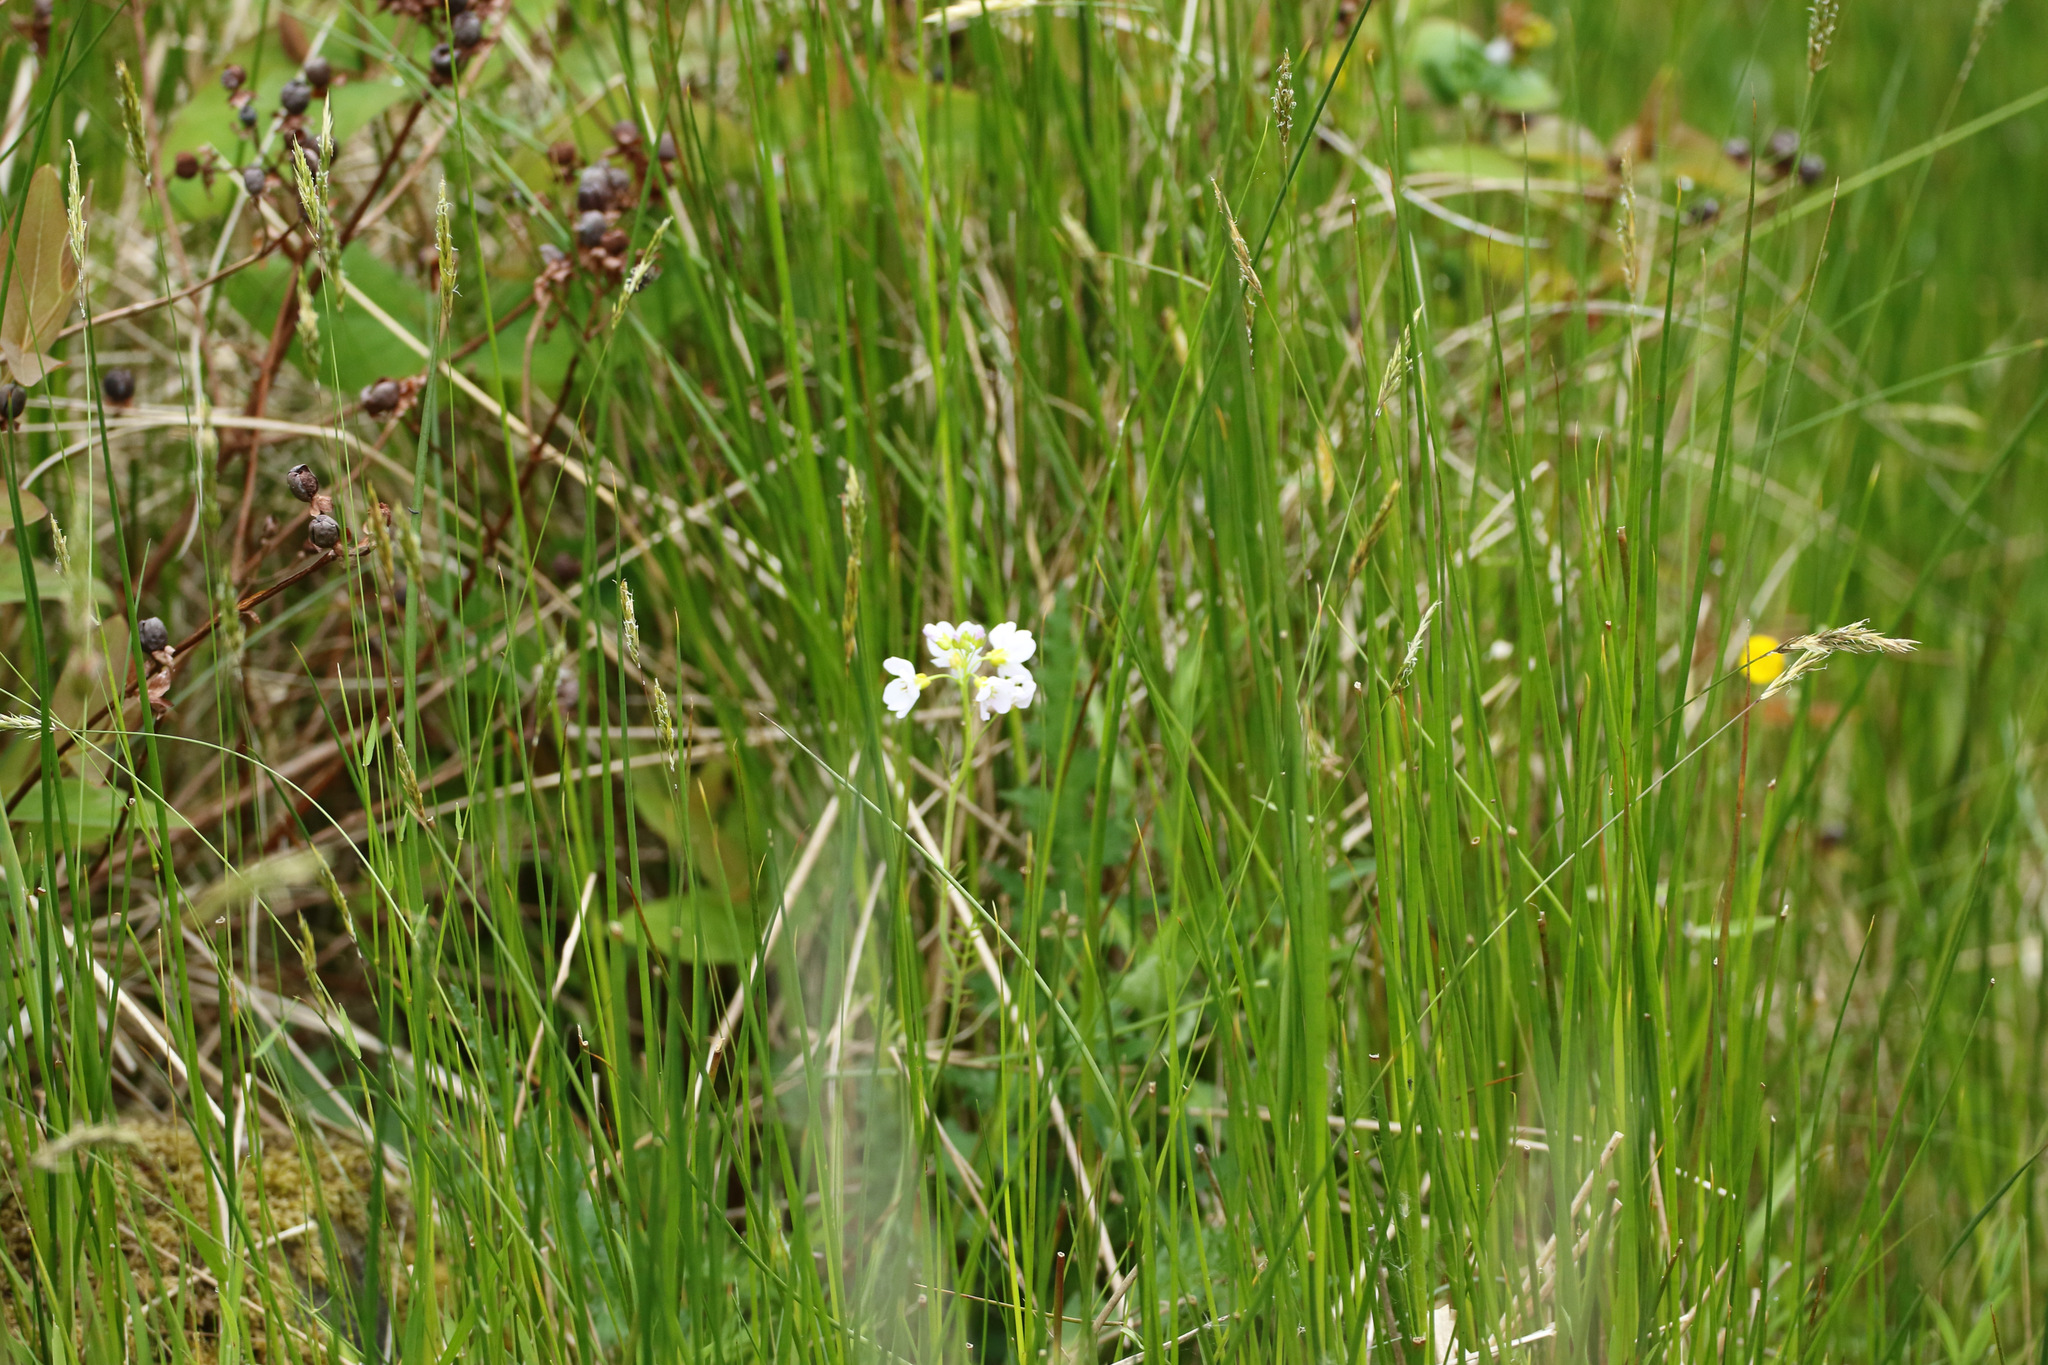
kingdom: Plantae
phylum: Tracheophyta
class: Magnoliopsida
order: Brassicales
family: Brassicaceae
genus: Cardamine
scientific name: Cardamine pratensis
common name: Cuckoo flower
